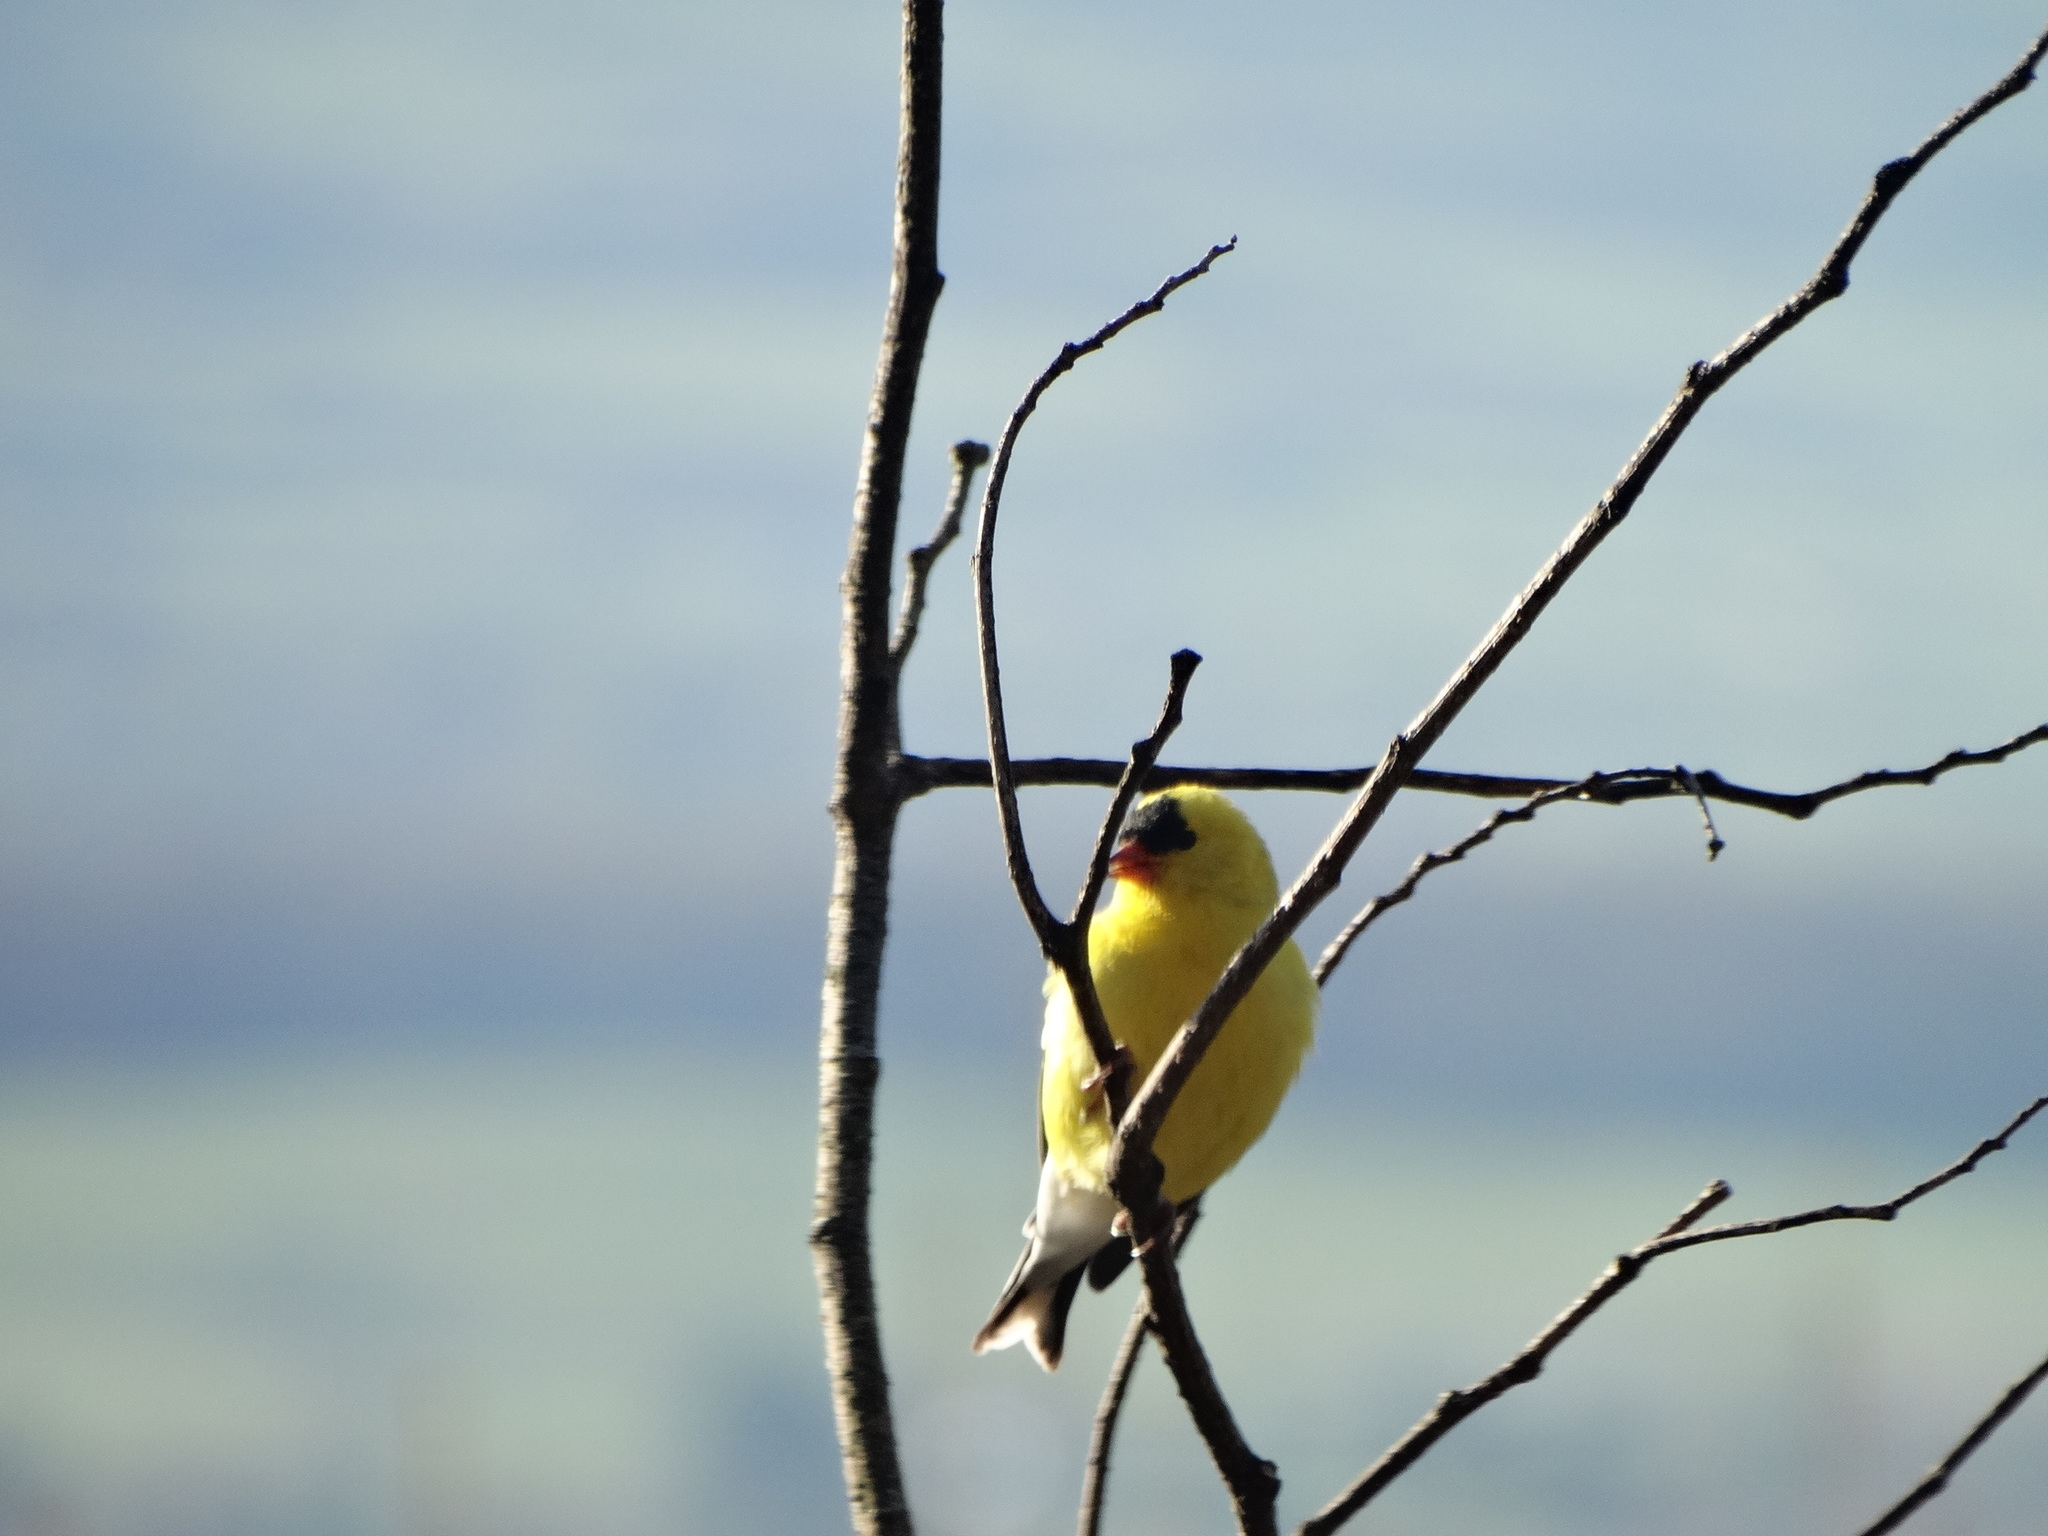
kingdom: Animalia
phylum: Chordata
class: Aves
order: Passeriformes
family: Fringillidae
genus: Spinus
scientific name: Spinus tristis
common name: American goldfinch
